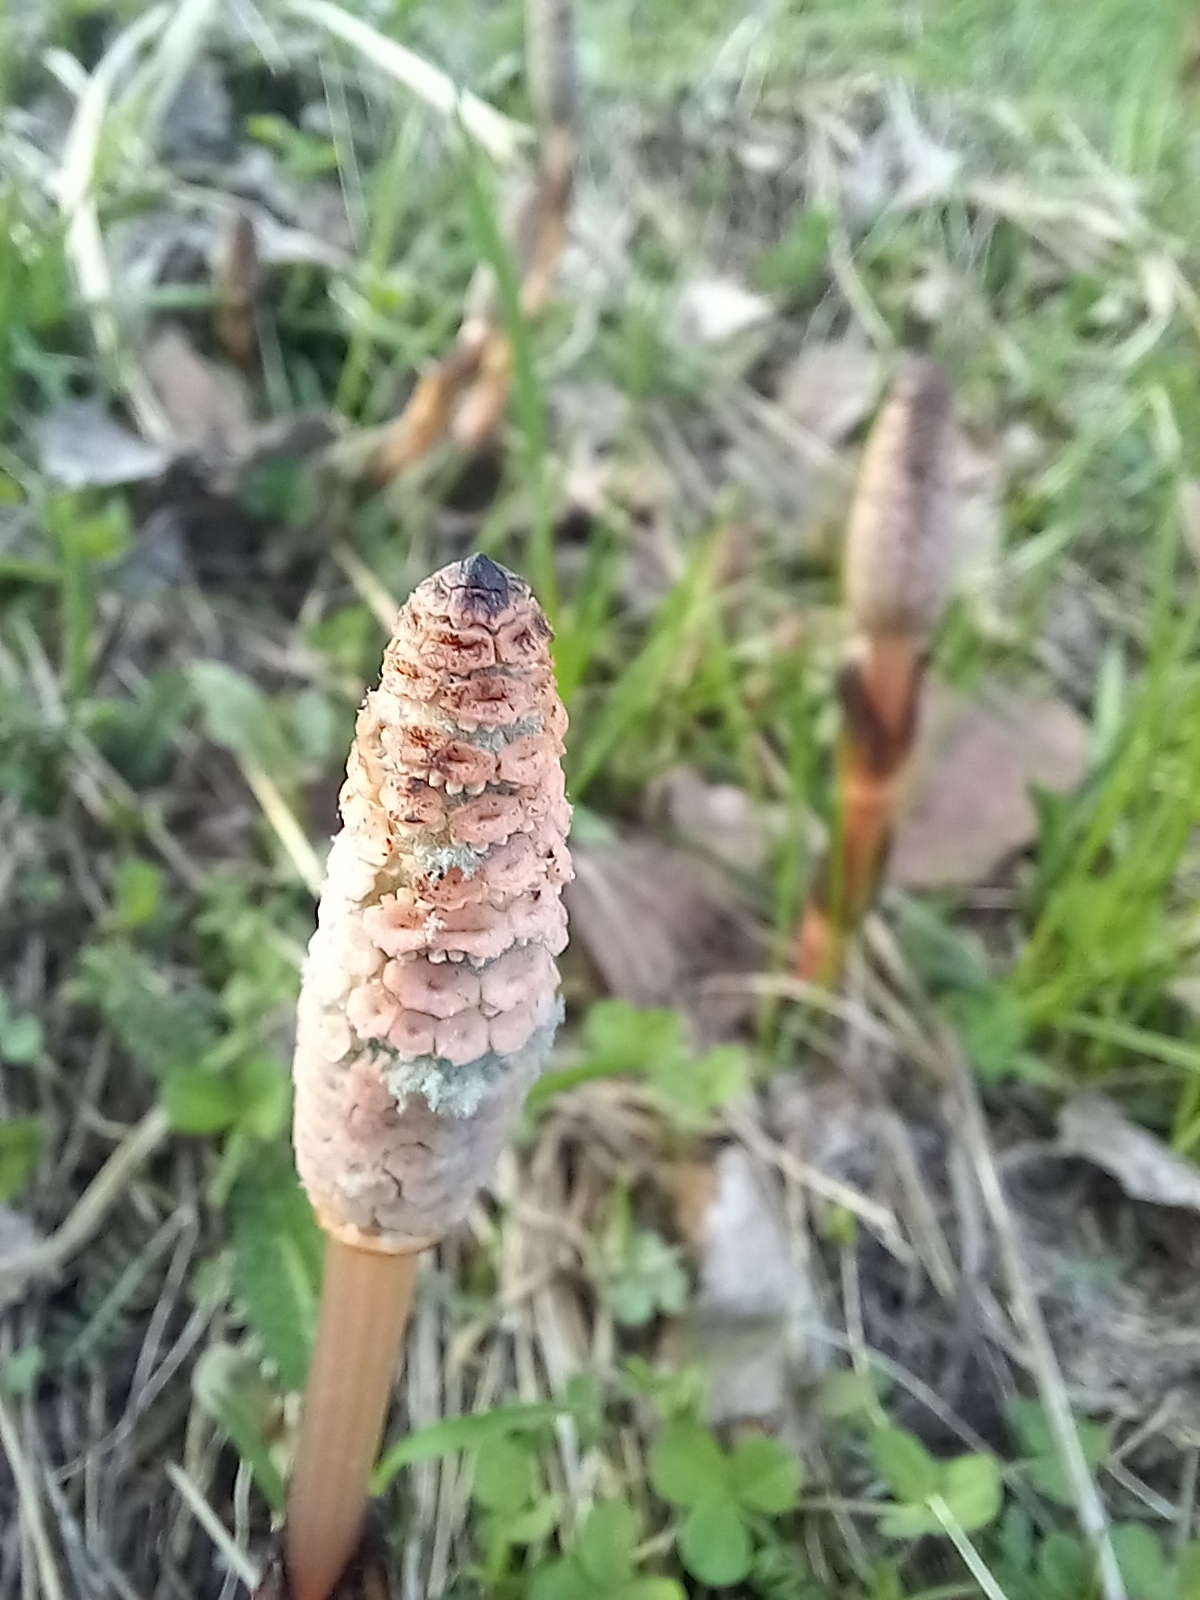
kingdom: Plantae
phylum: Tracheophyta
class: Polypodiopsida
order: Equisetales
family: Equisetaceae
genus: Equisetum
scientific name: Equisetum arvense
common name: Field horsetail
